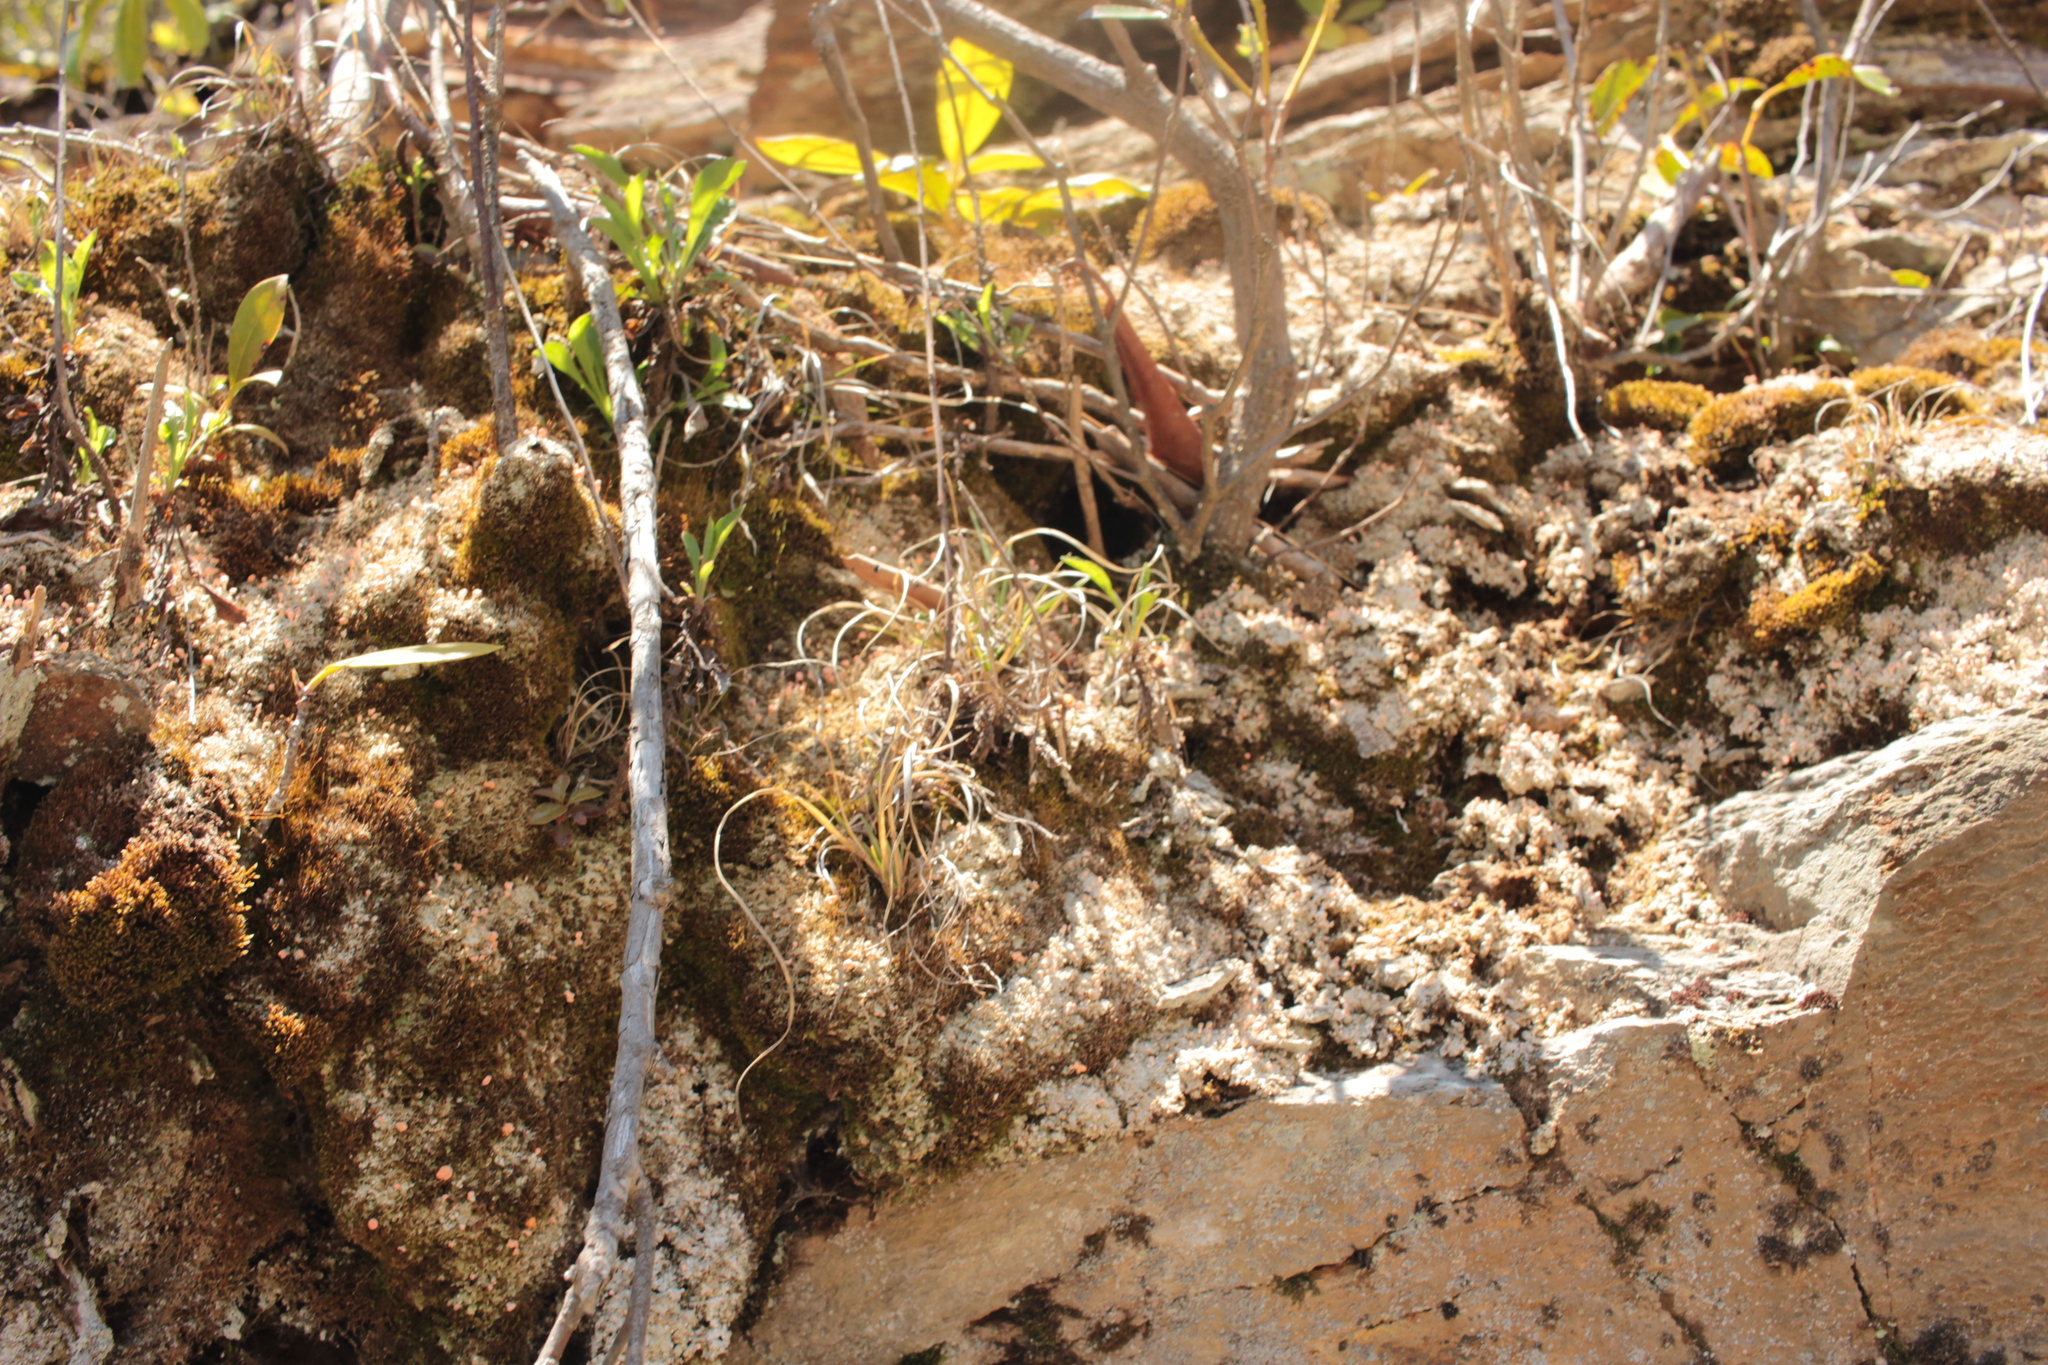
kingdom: Plantae
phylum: Tracheophyta
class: Liliopsida
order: Poales
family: Poaceae
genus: Danthonia
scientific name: Danthonia spicata
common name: Common wild oatgrass
